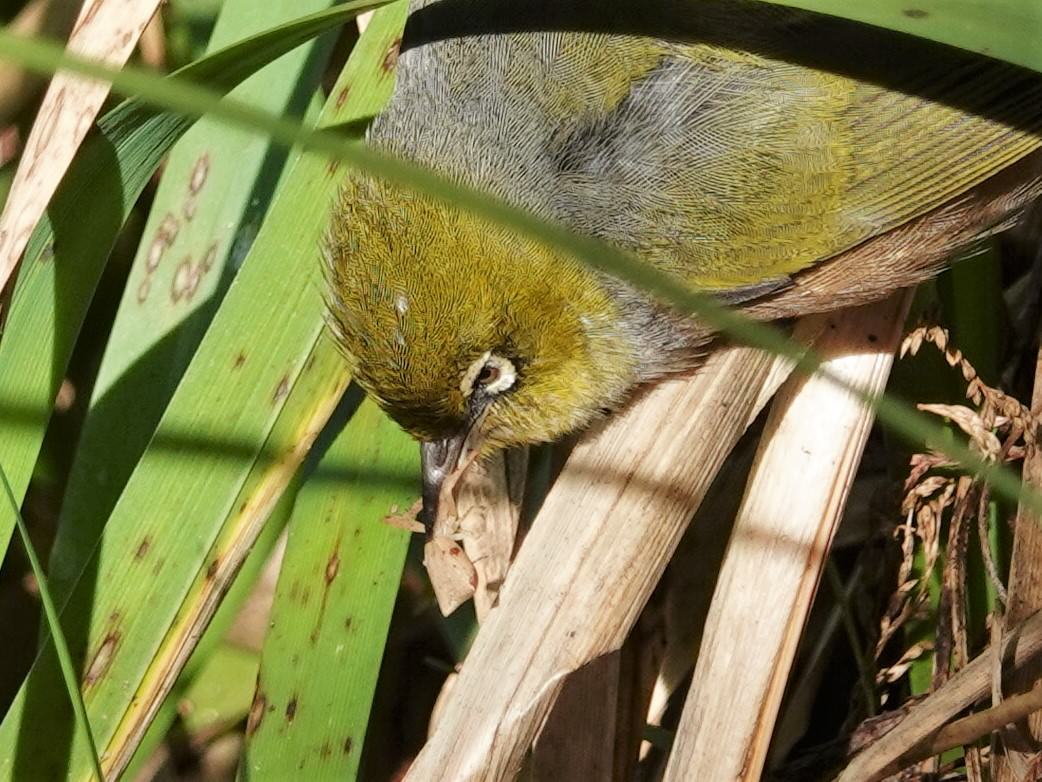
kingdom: Animalia
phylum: Chordata
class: Aves
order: Passeriformes
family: Zosteropidae
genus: Zosterops
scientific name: Zosterops lateralis
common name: Silvereye
